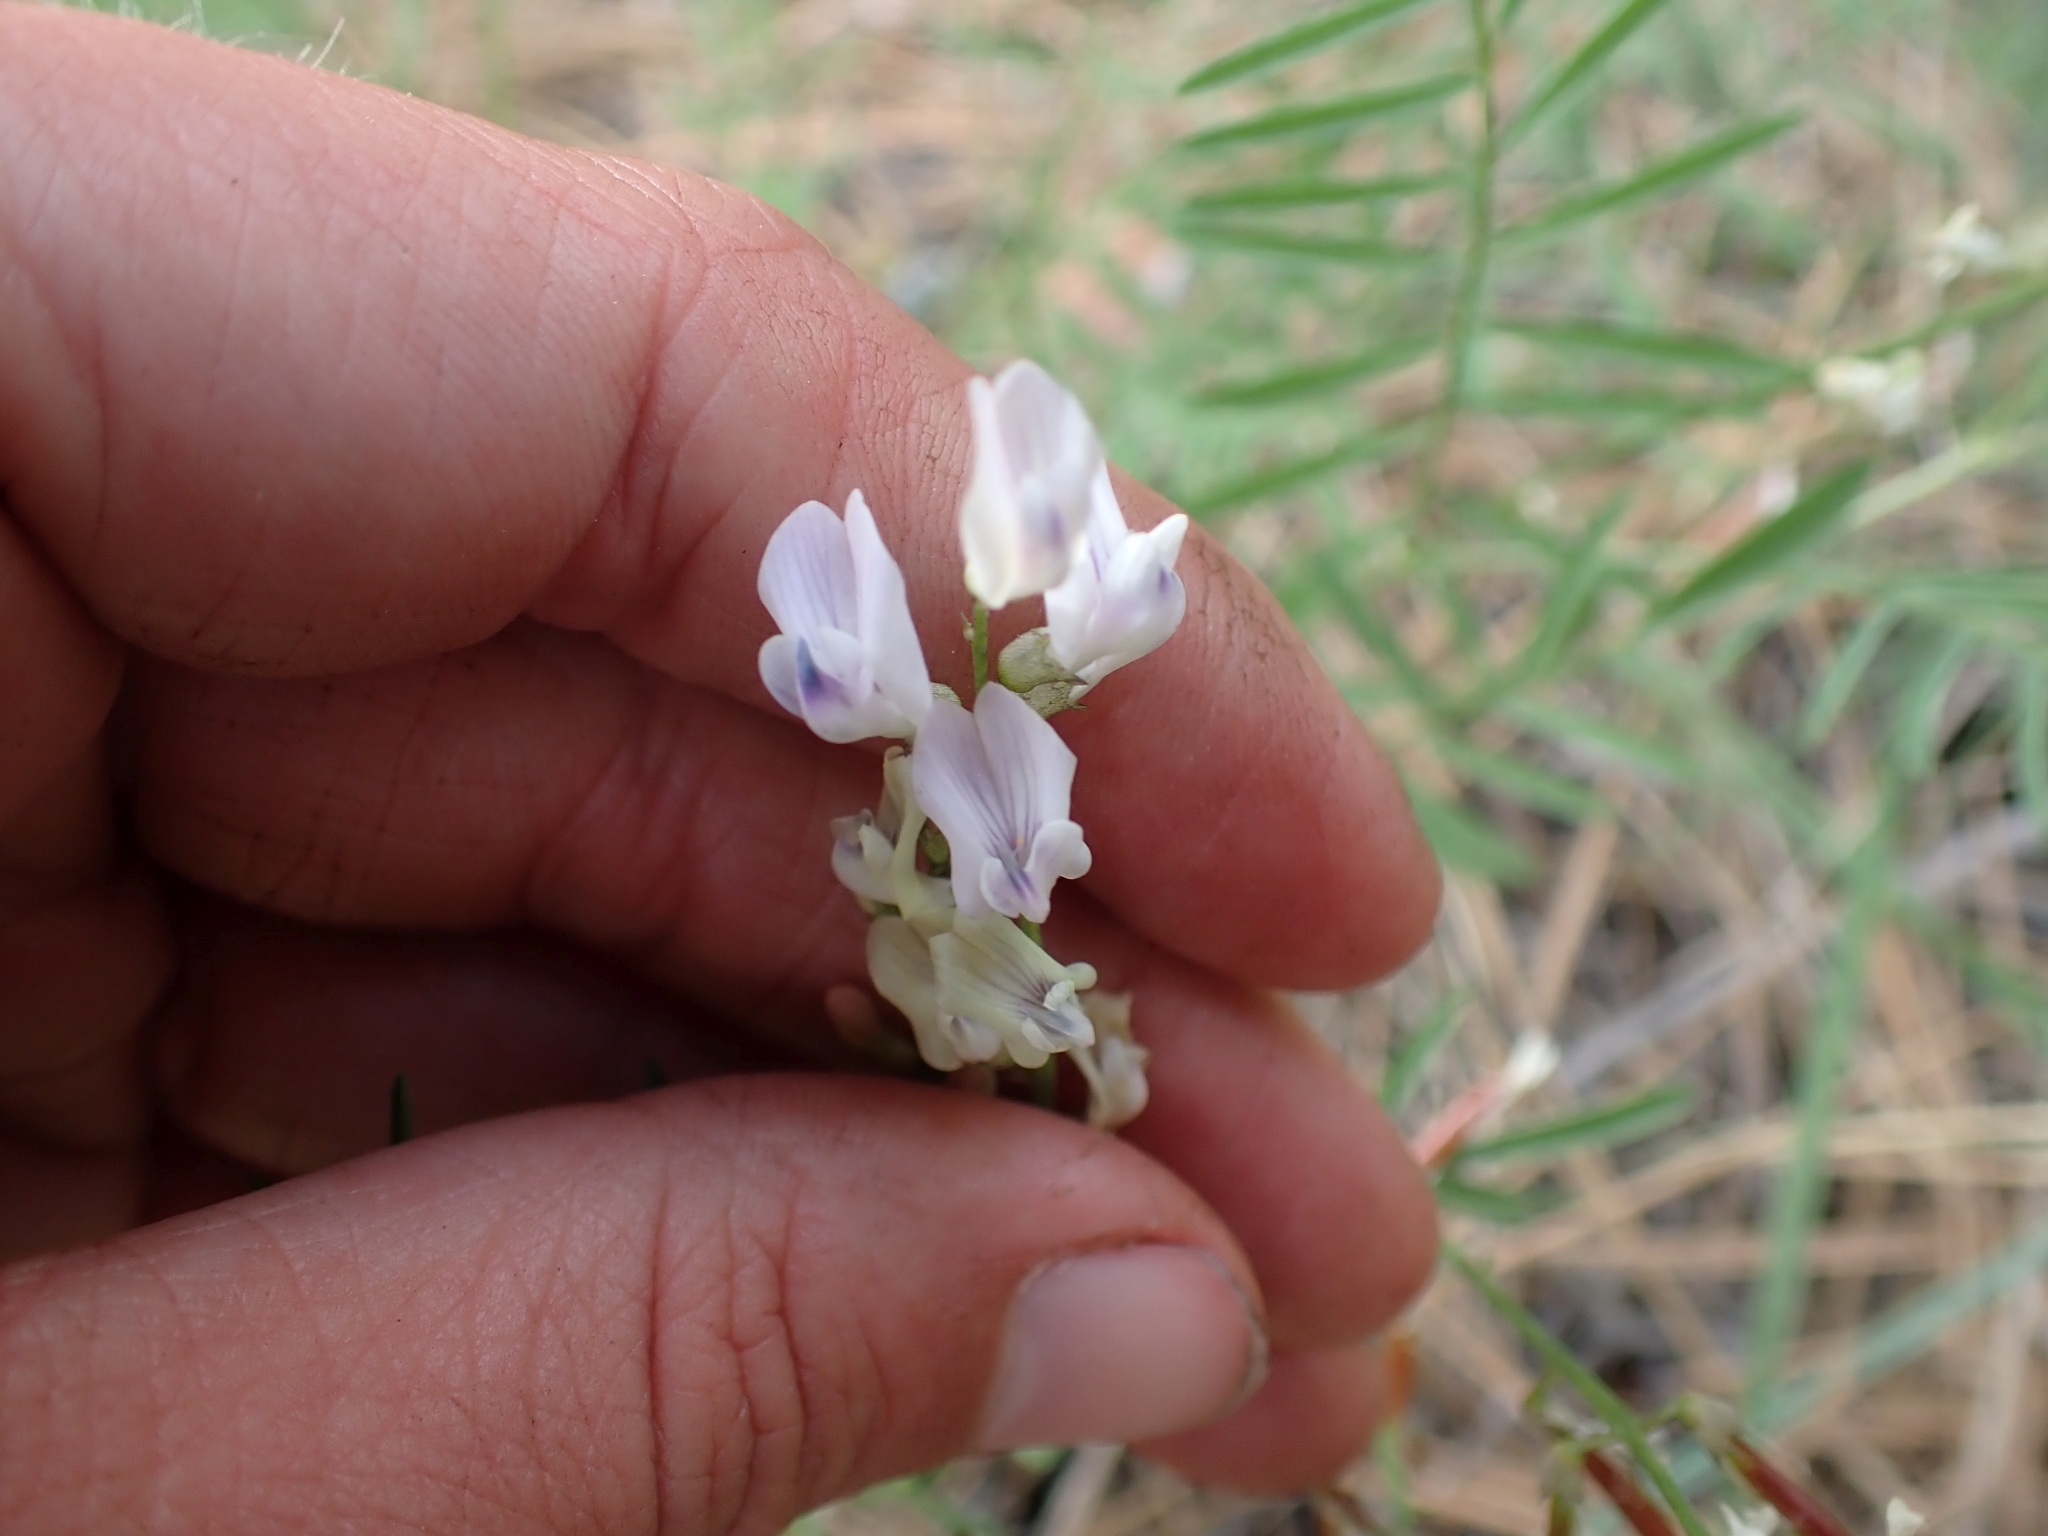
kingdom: Plantae
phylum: Tracheophyta
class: Magnoliopsida
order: Fabales
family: Fabaceae
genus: Astragalus
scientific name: Astragalus miser
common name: Timber milkvetch
